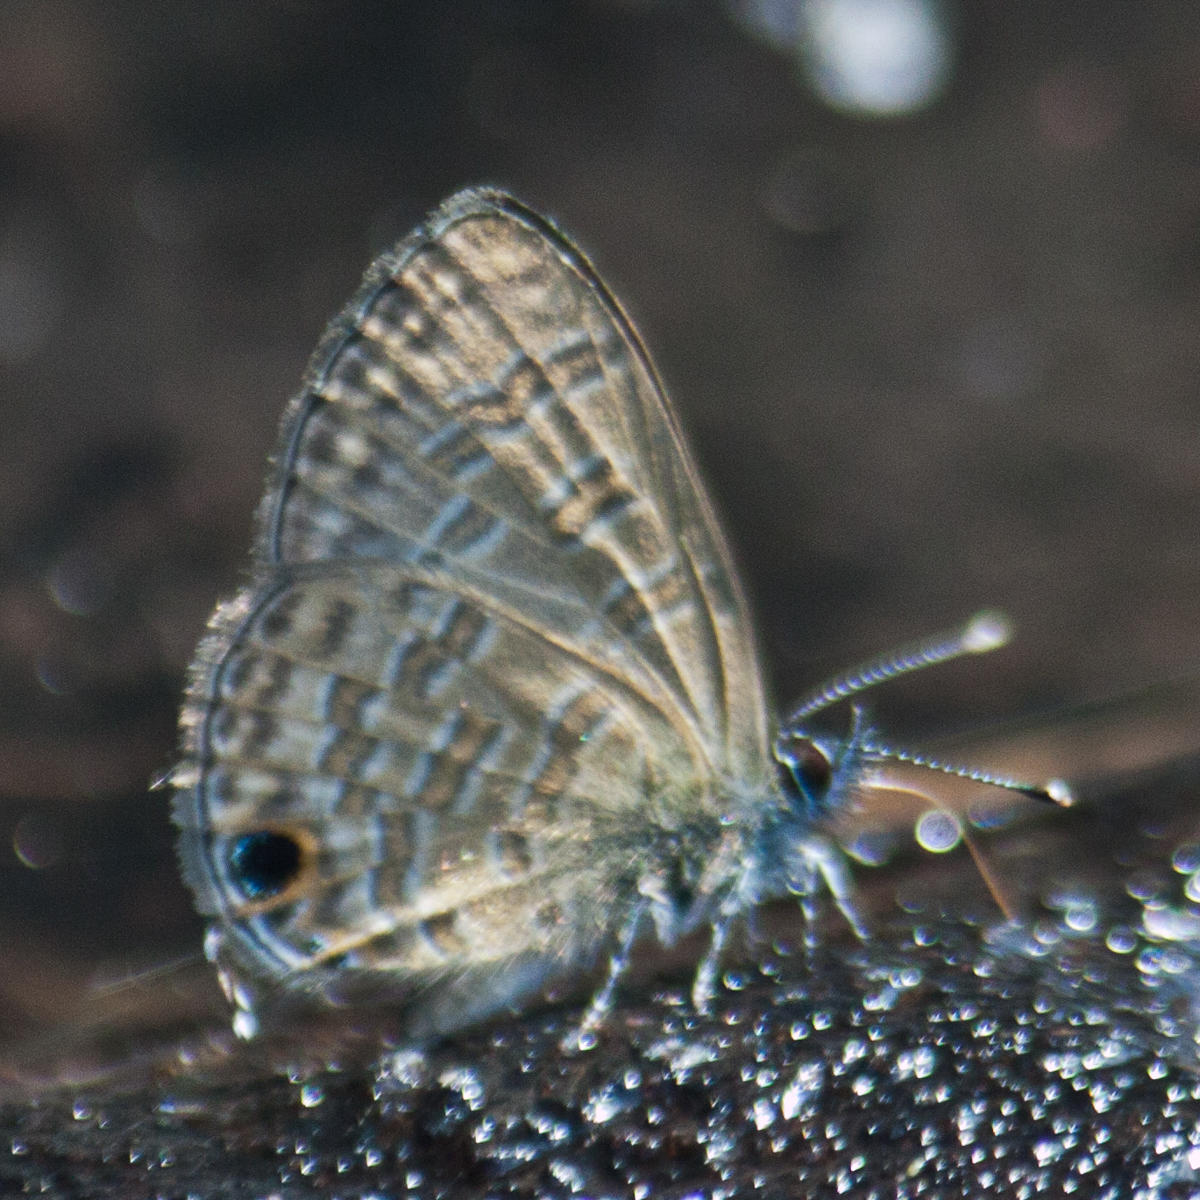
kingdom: Animalia
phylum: Arthropoda
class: Insecta
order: Lepidoptera
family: Lycaenidae
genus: Prosotas
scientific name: Prosotas nora
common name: Common line blue
